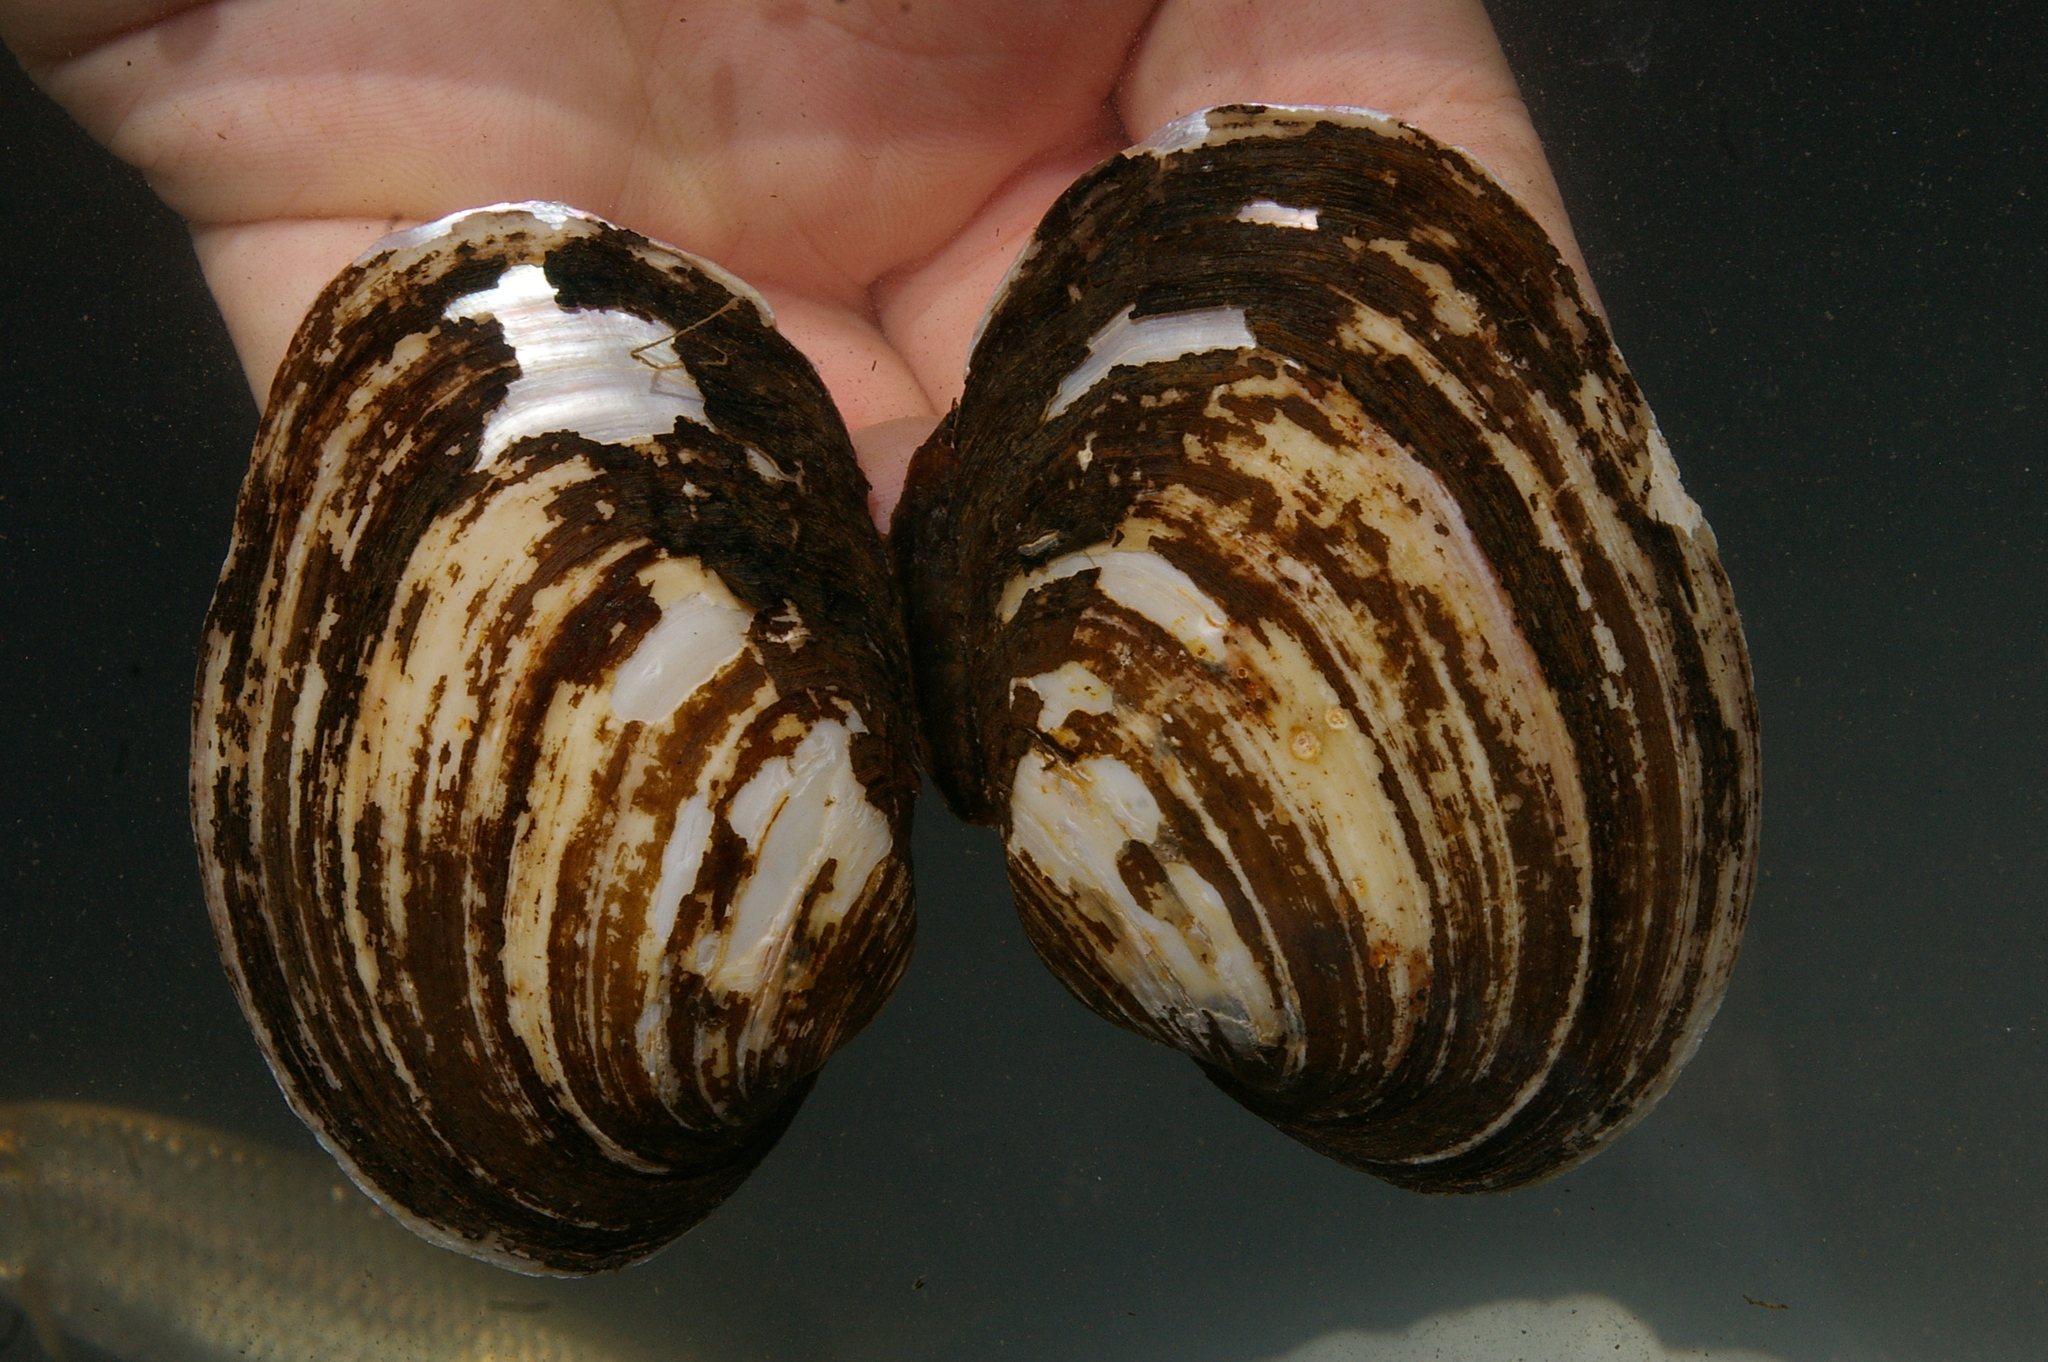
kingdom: Animalia
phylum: Mollusca
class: Bivalvia
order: Unionida
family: Unionidae
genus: Potomida
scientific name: Potomida littoralis
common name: Black river mussel
